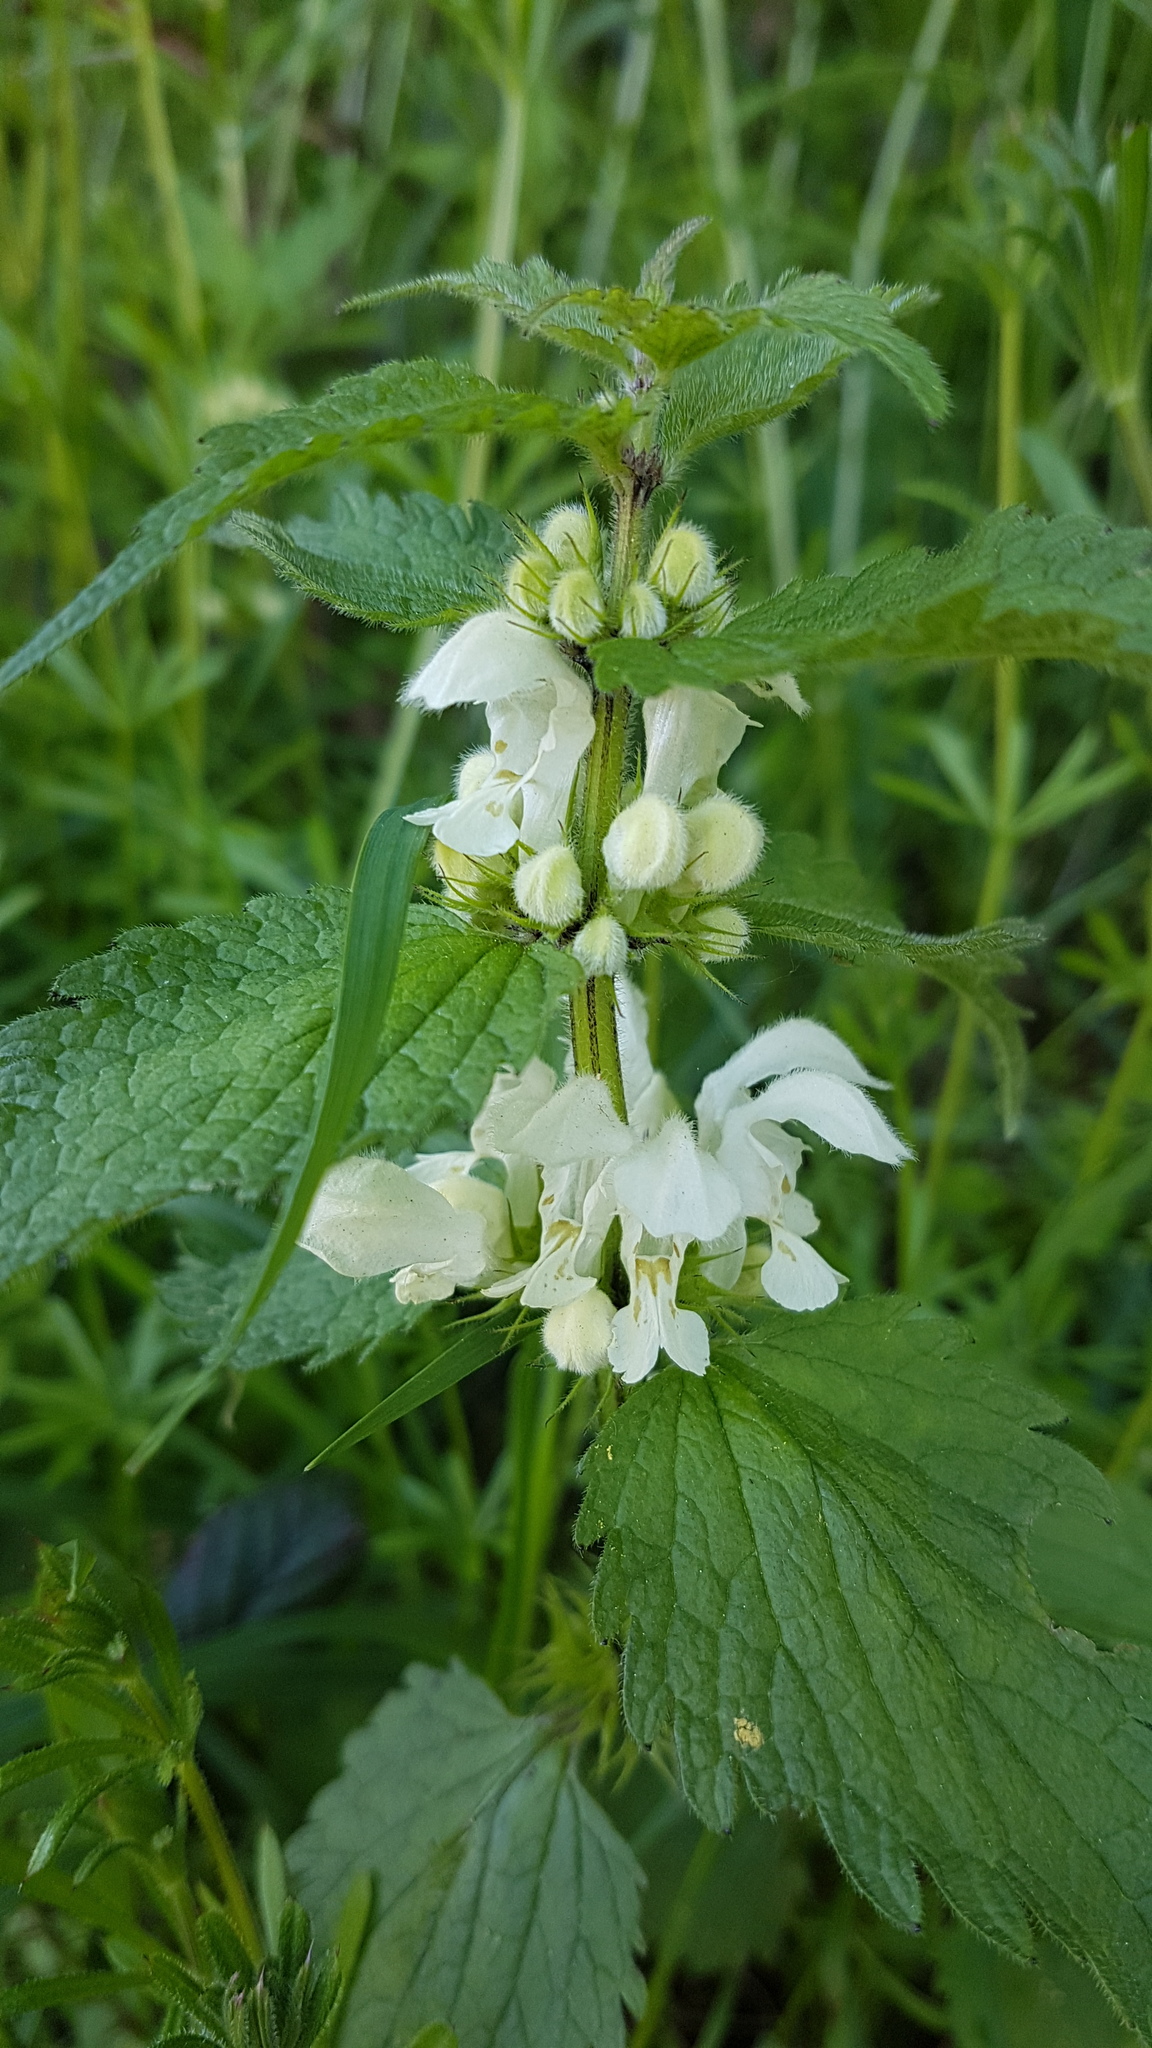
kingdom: Plantae
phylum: Tracheophyta
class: Magnoliopsida
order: Lamiales
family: Lamiaceae
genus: Lamium
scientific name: Lamium album
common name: White dead-nettle
